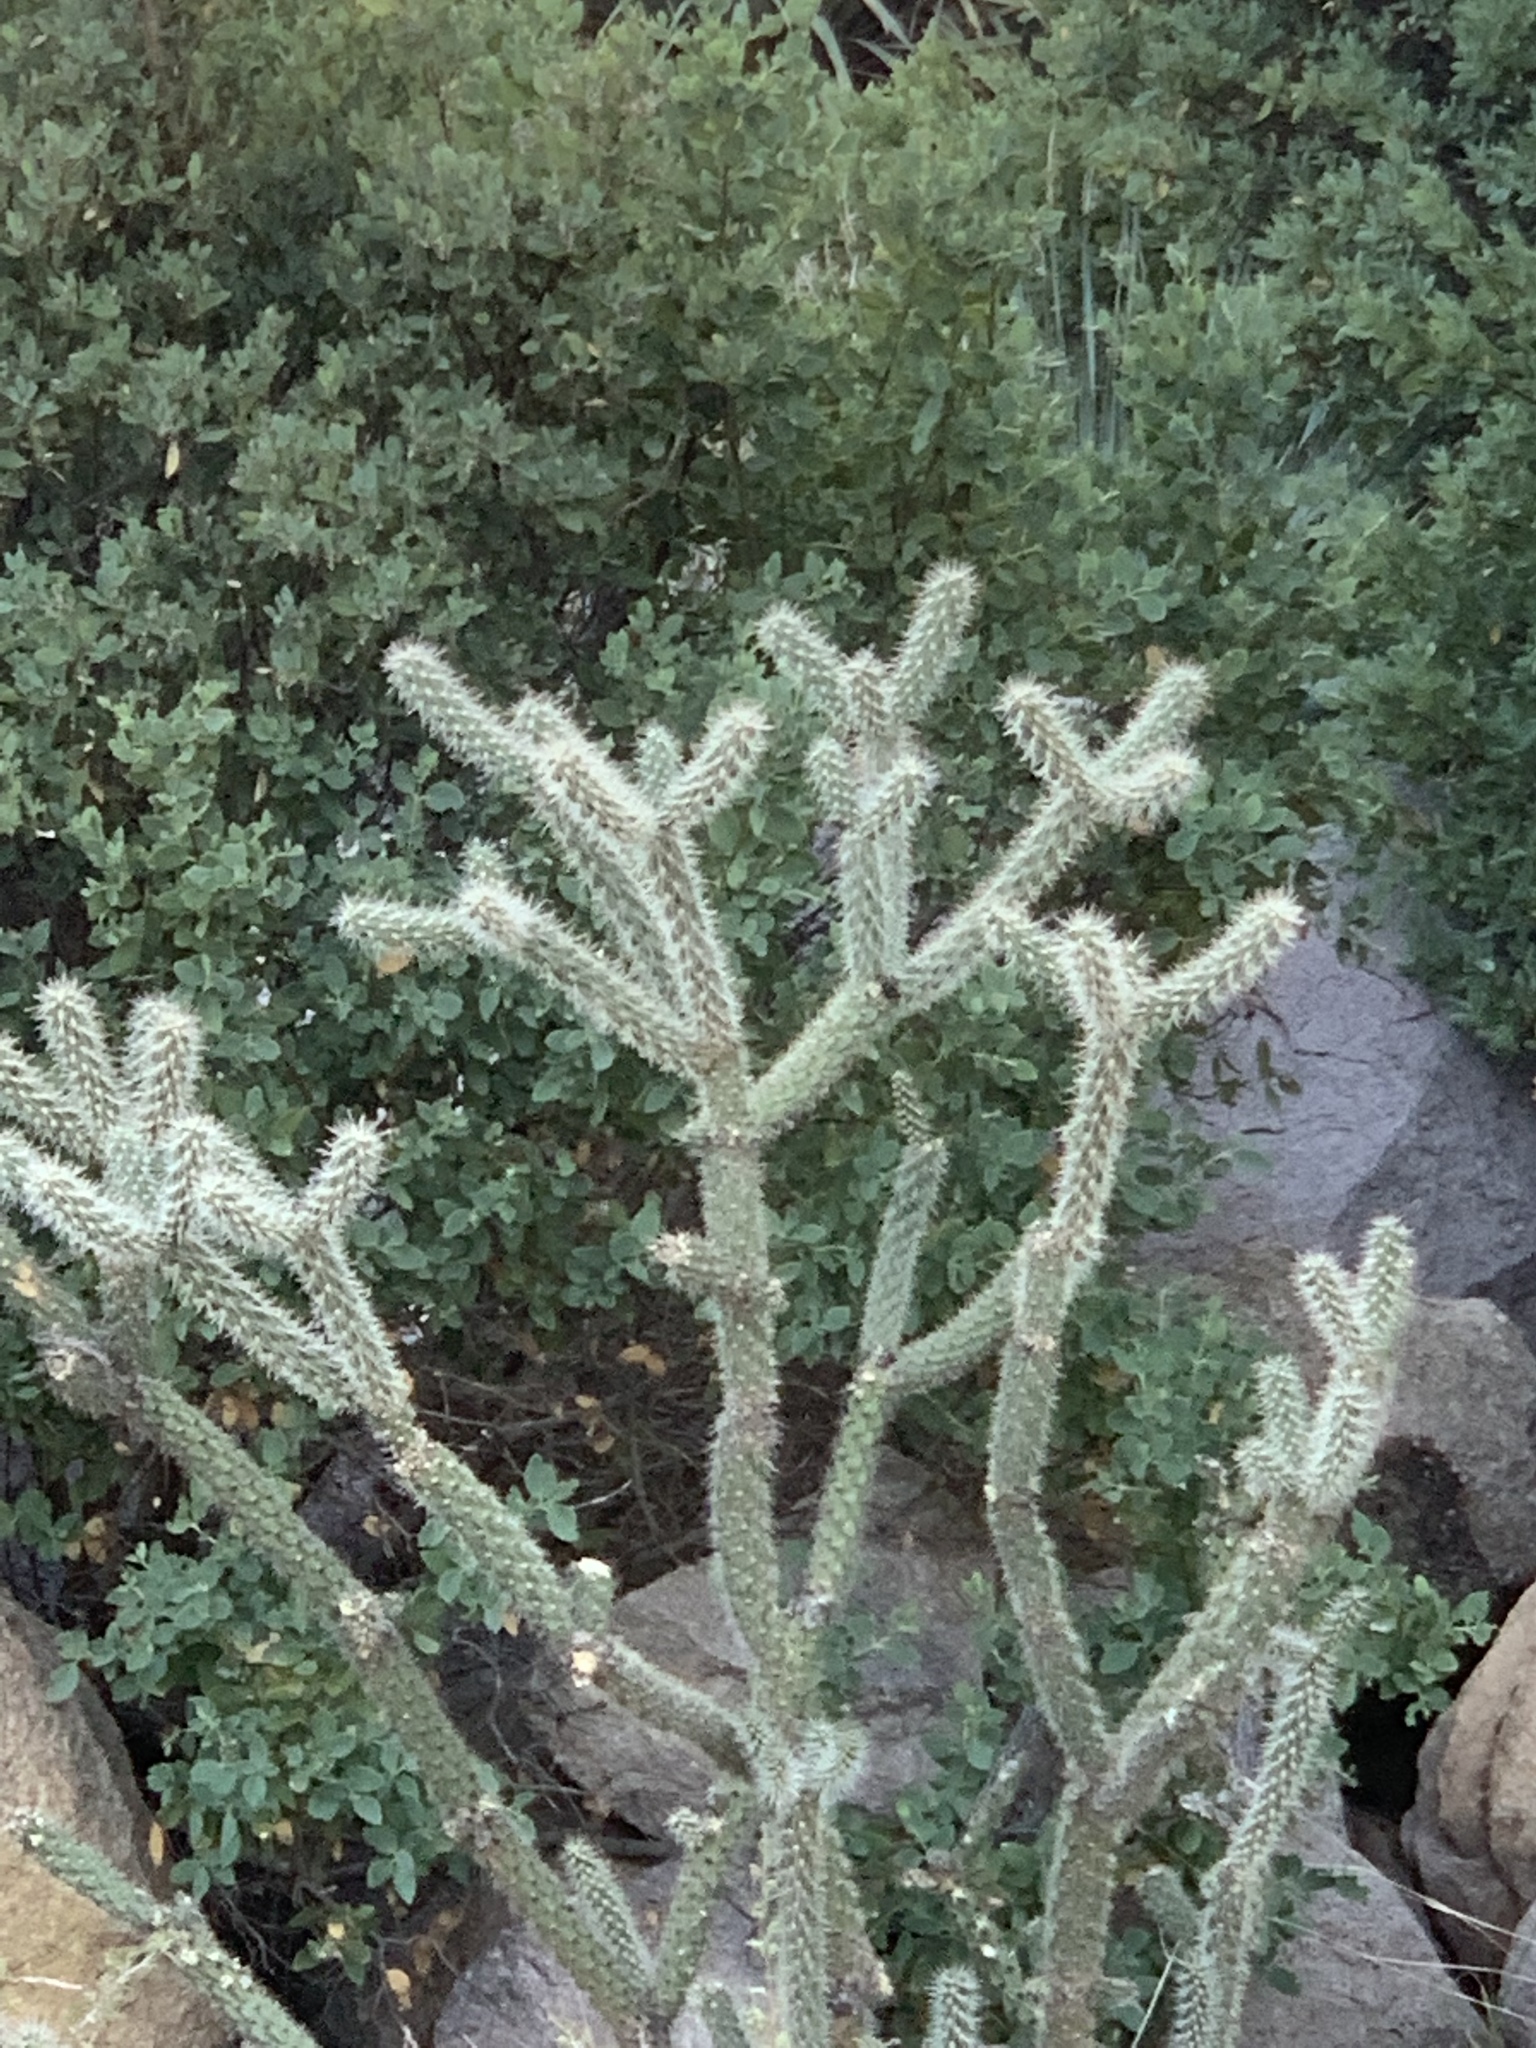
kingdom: Plantae
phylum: Tracheophyta
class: Magnoliopsida
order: Caryophyllales
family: Cactaceae
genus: Cylindropuntia
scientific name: Cylindropuntia imbricata
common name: Candelabrum cactus
